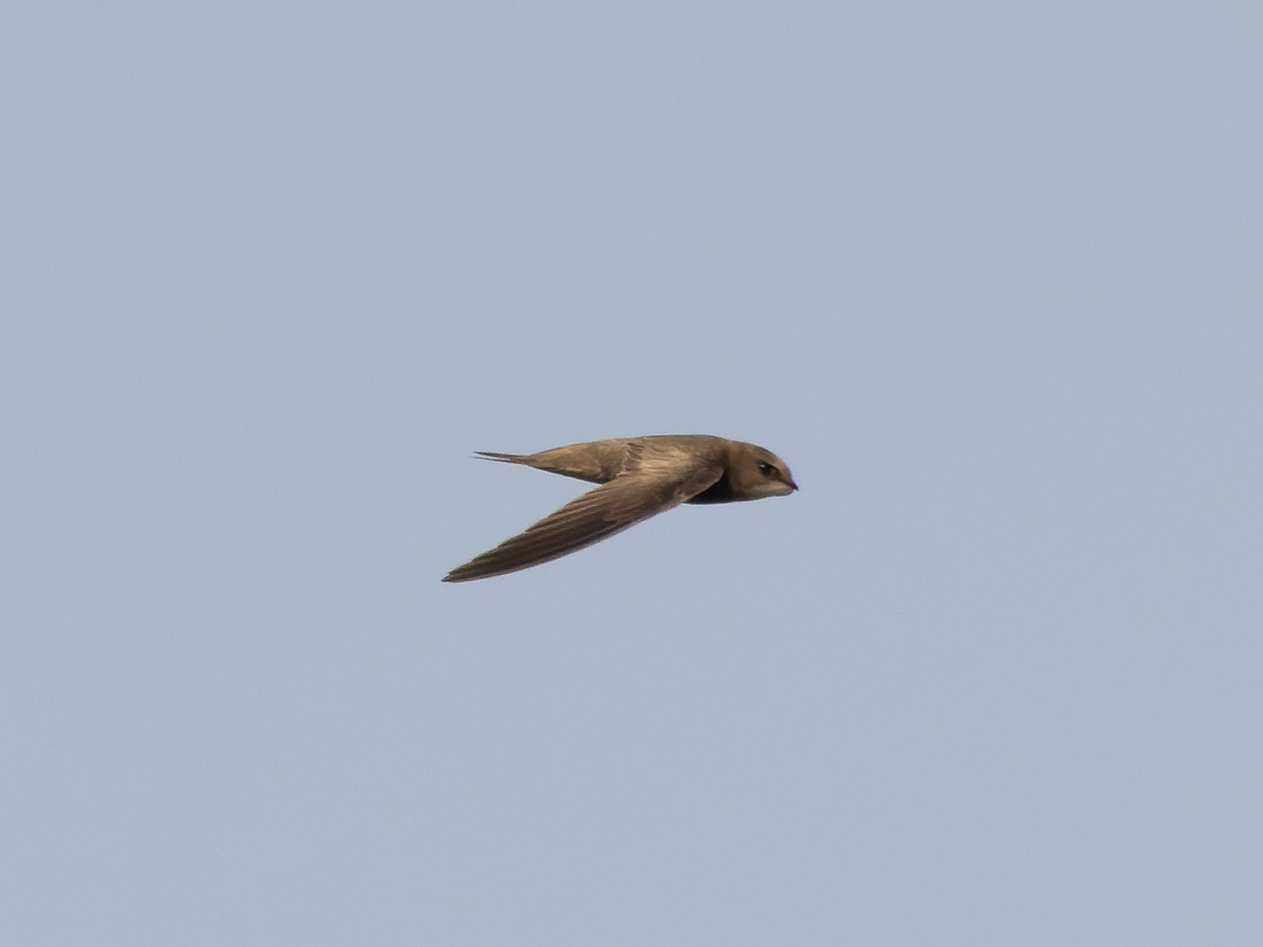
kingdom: Animalia
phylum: Chordata
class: Aves
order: Apodiformes
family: Apodidae
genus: Apus
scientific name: Apus pallidus
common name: Pallid swift
